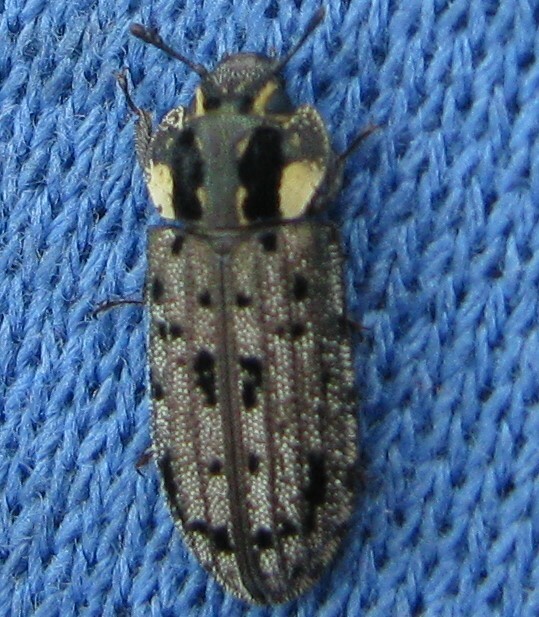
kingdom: Animalia
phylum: Arthropoda
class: Insecta
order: Coleoptera
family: Trogossitidae
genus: Leperina
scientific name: Leperina
